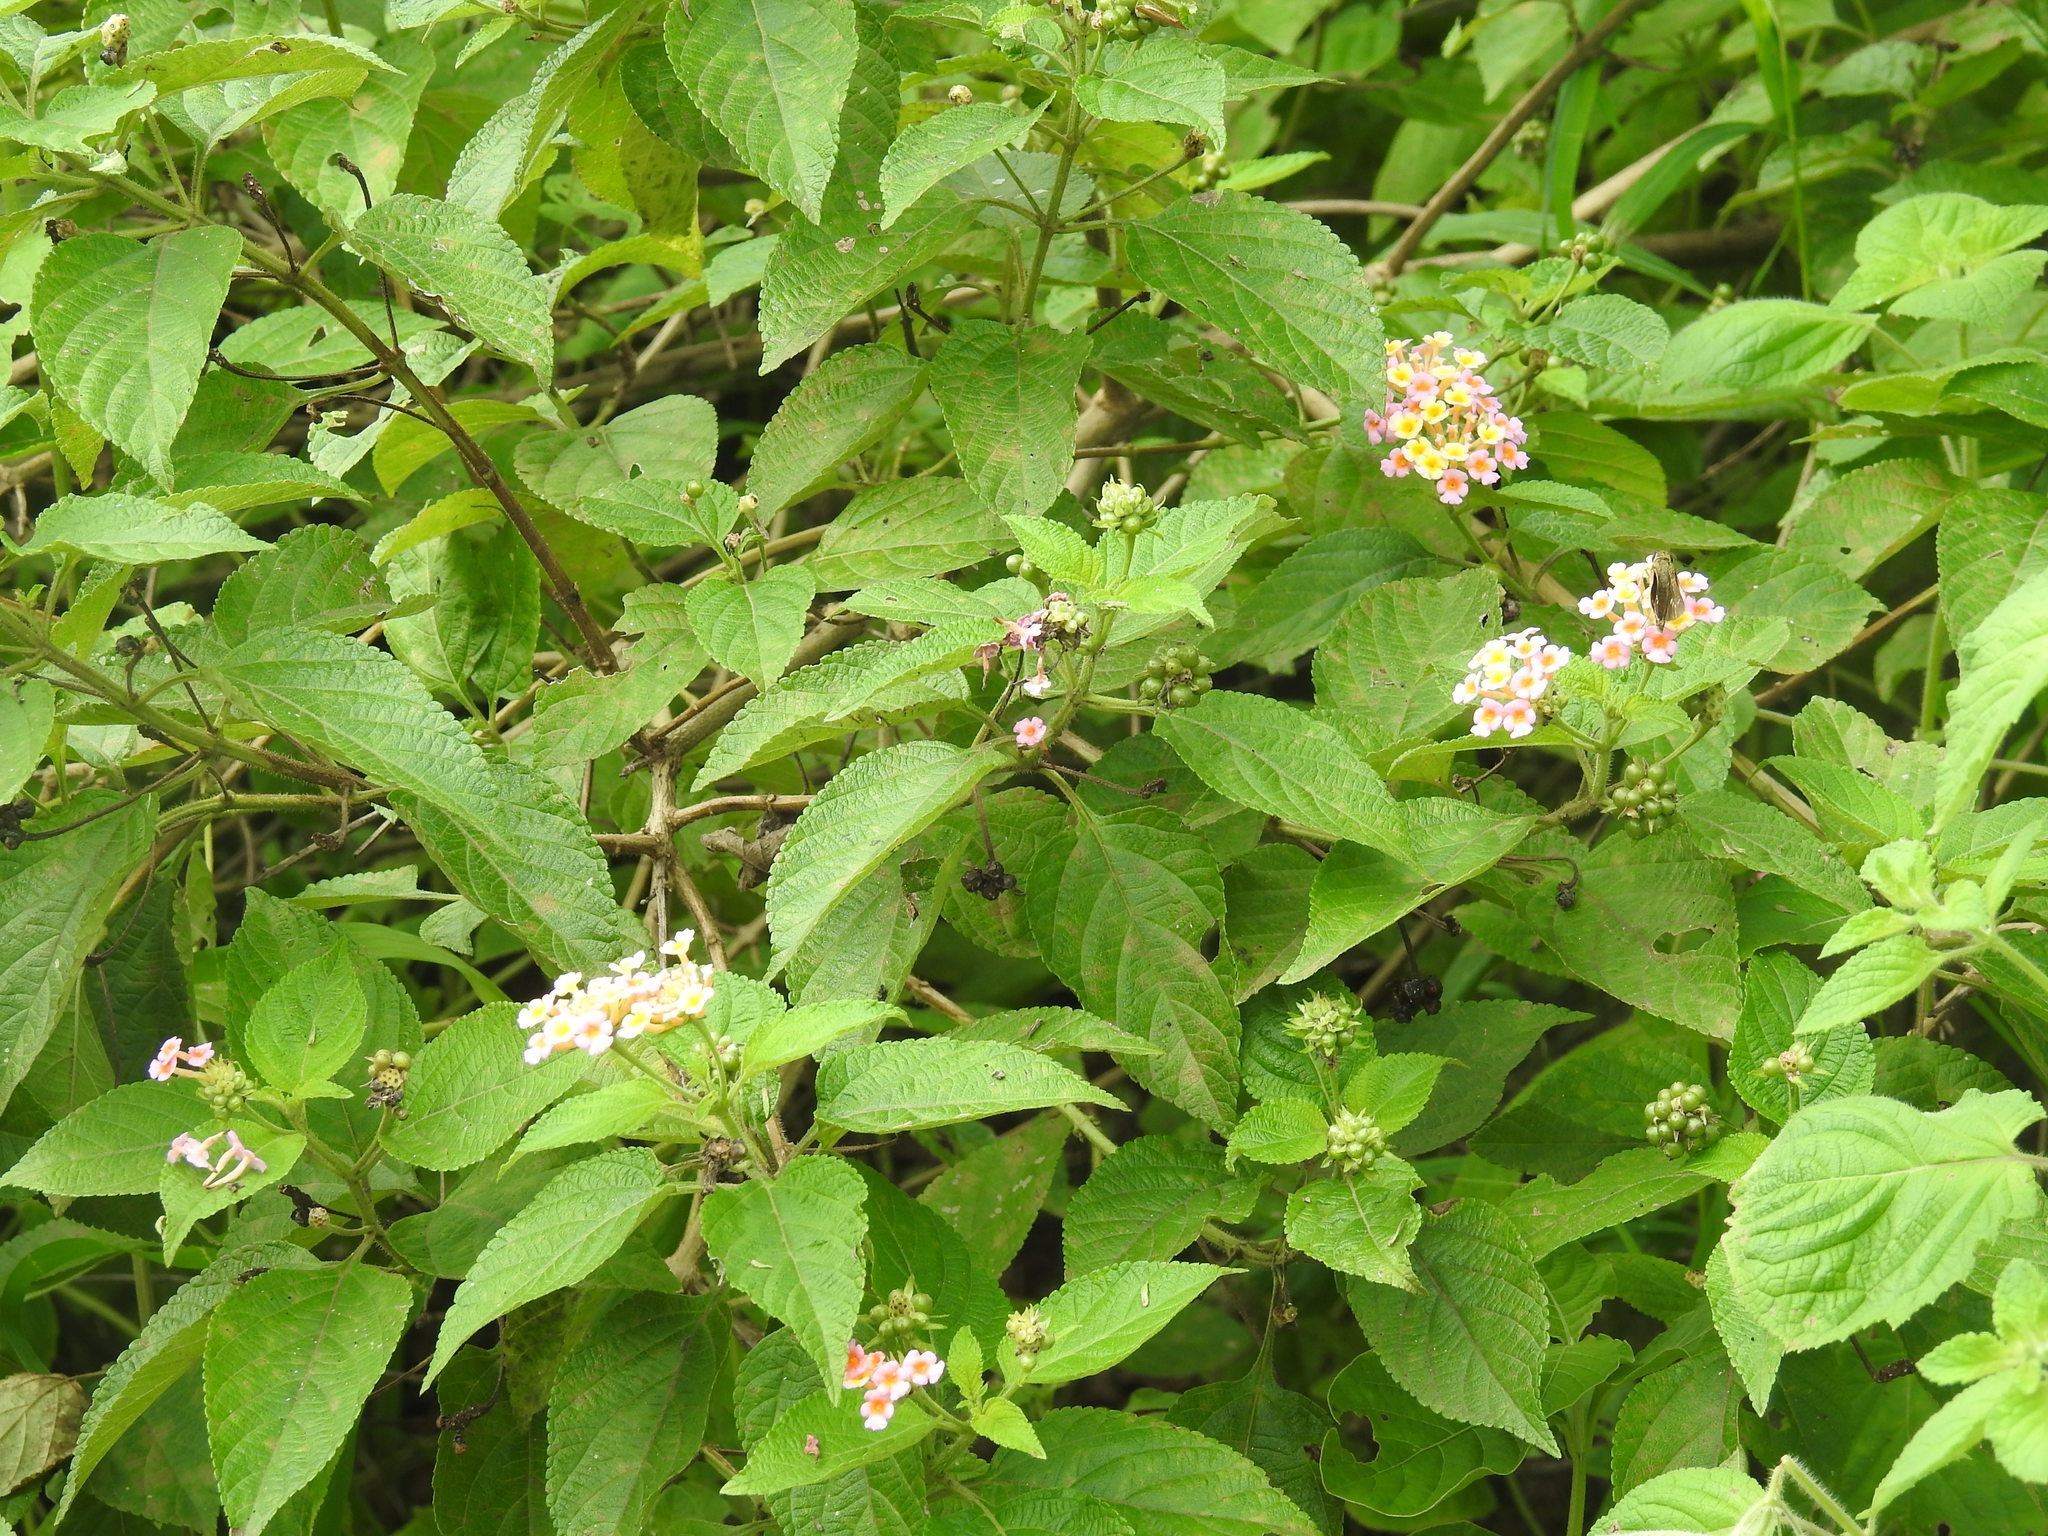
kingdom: Plantae
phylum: Tracheophyta
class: Magnoliopsida
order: Lamiales
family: Verbenaceae
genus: Lantana
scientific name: Lantana camara
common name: Lantana
